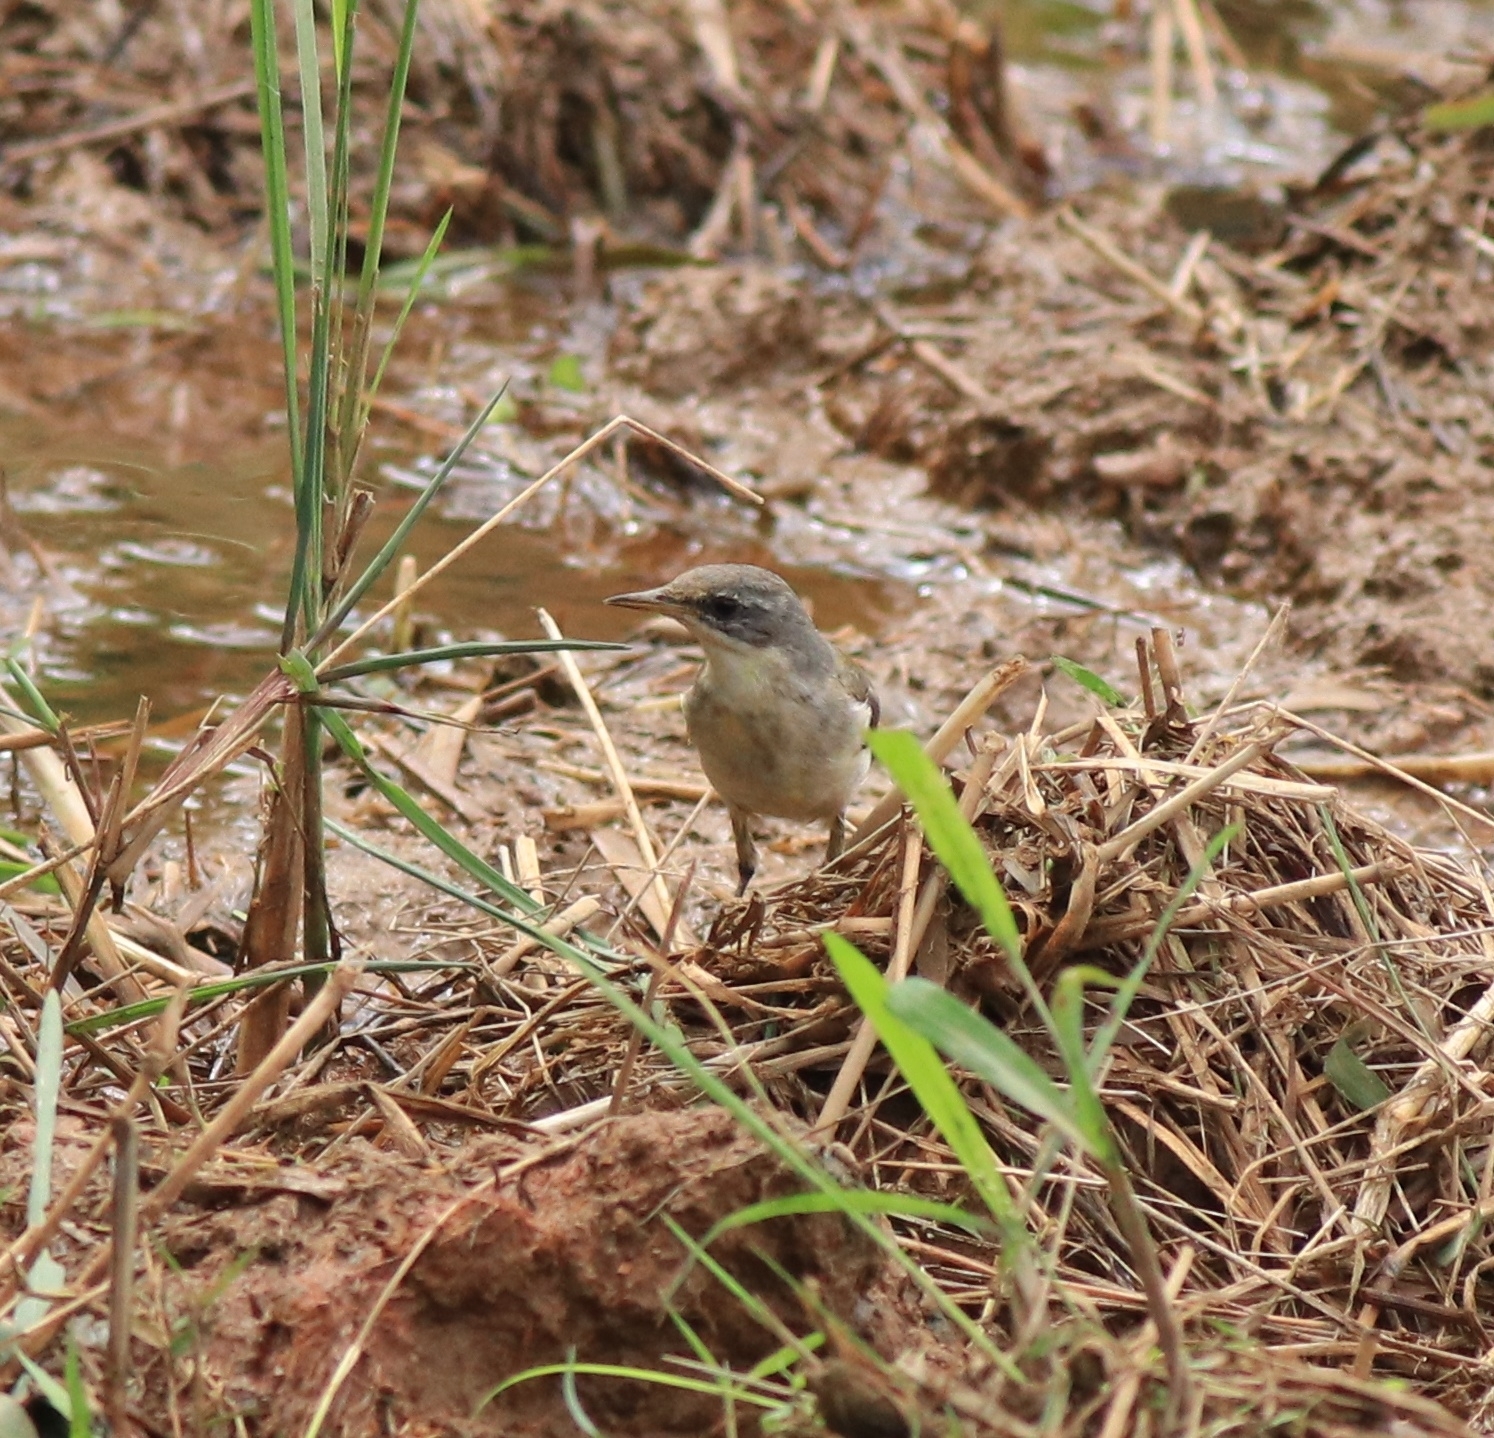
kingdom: Animalia
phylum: Chordata
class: Aves
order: Passeriformes
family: Motacillidae
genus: Motacilla
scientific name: Motacilla flava
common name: Western yellow wagtail
